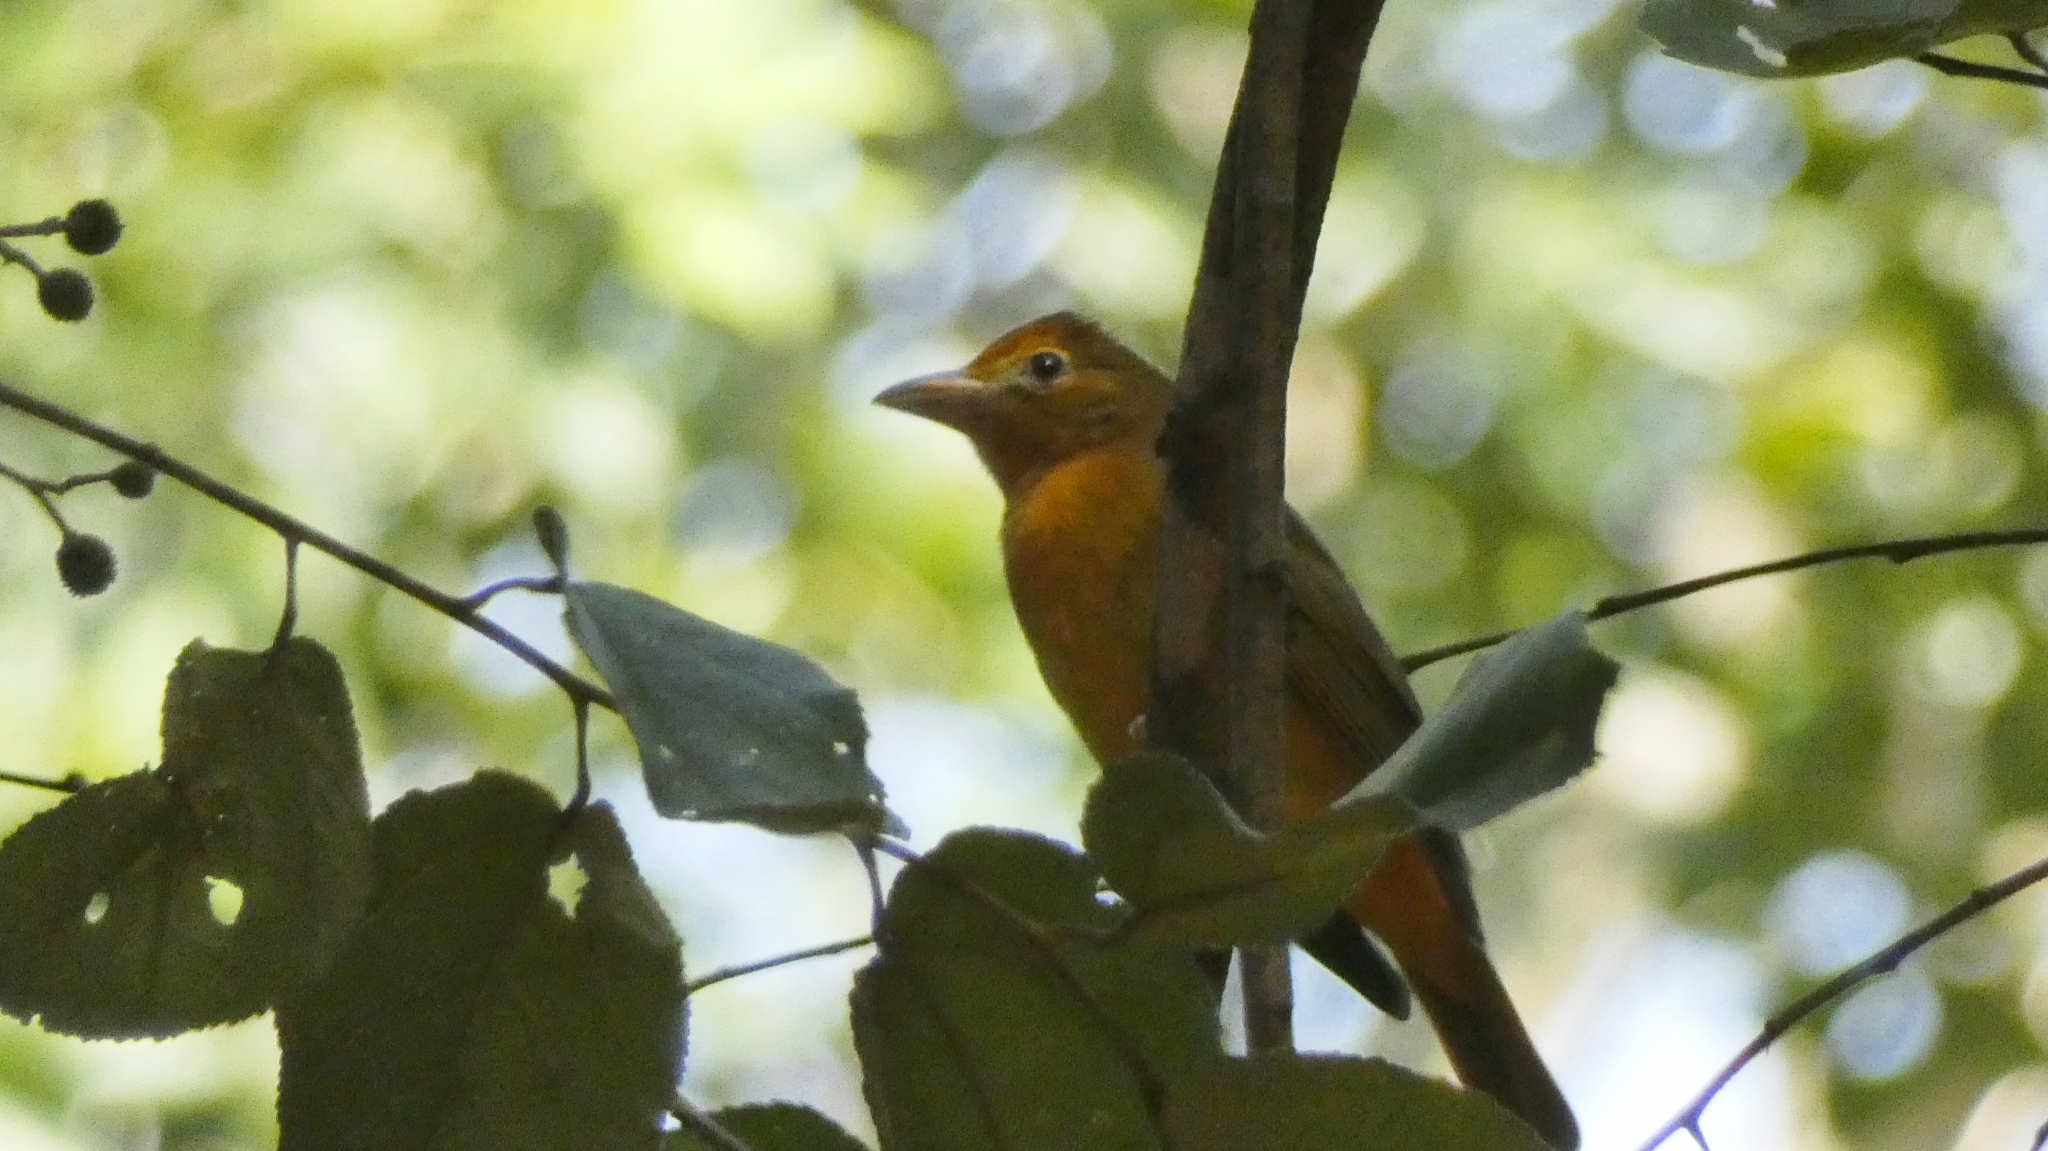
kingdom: Animalia
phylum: Chordata
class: Aves
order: Passeriformes
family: Cardinalidae
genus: Piranga
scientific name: Piranga rubra
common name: Summer tanager
